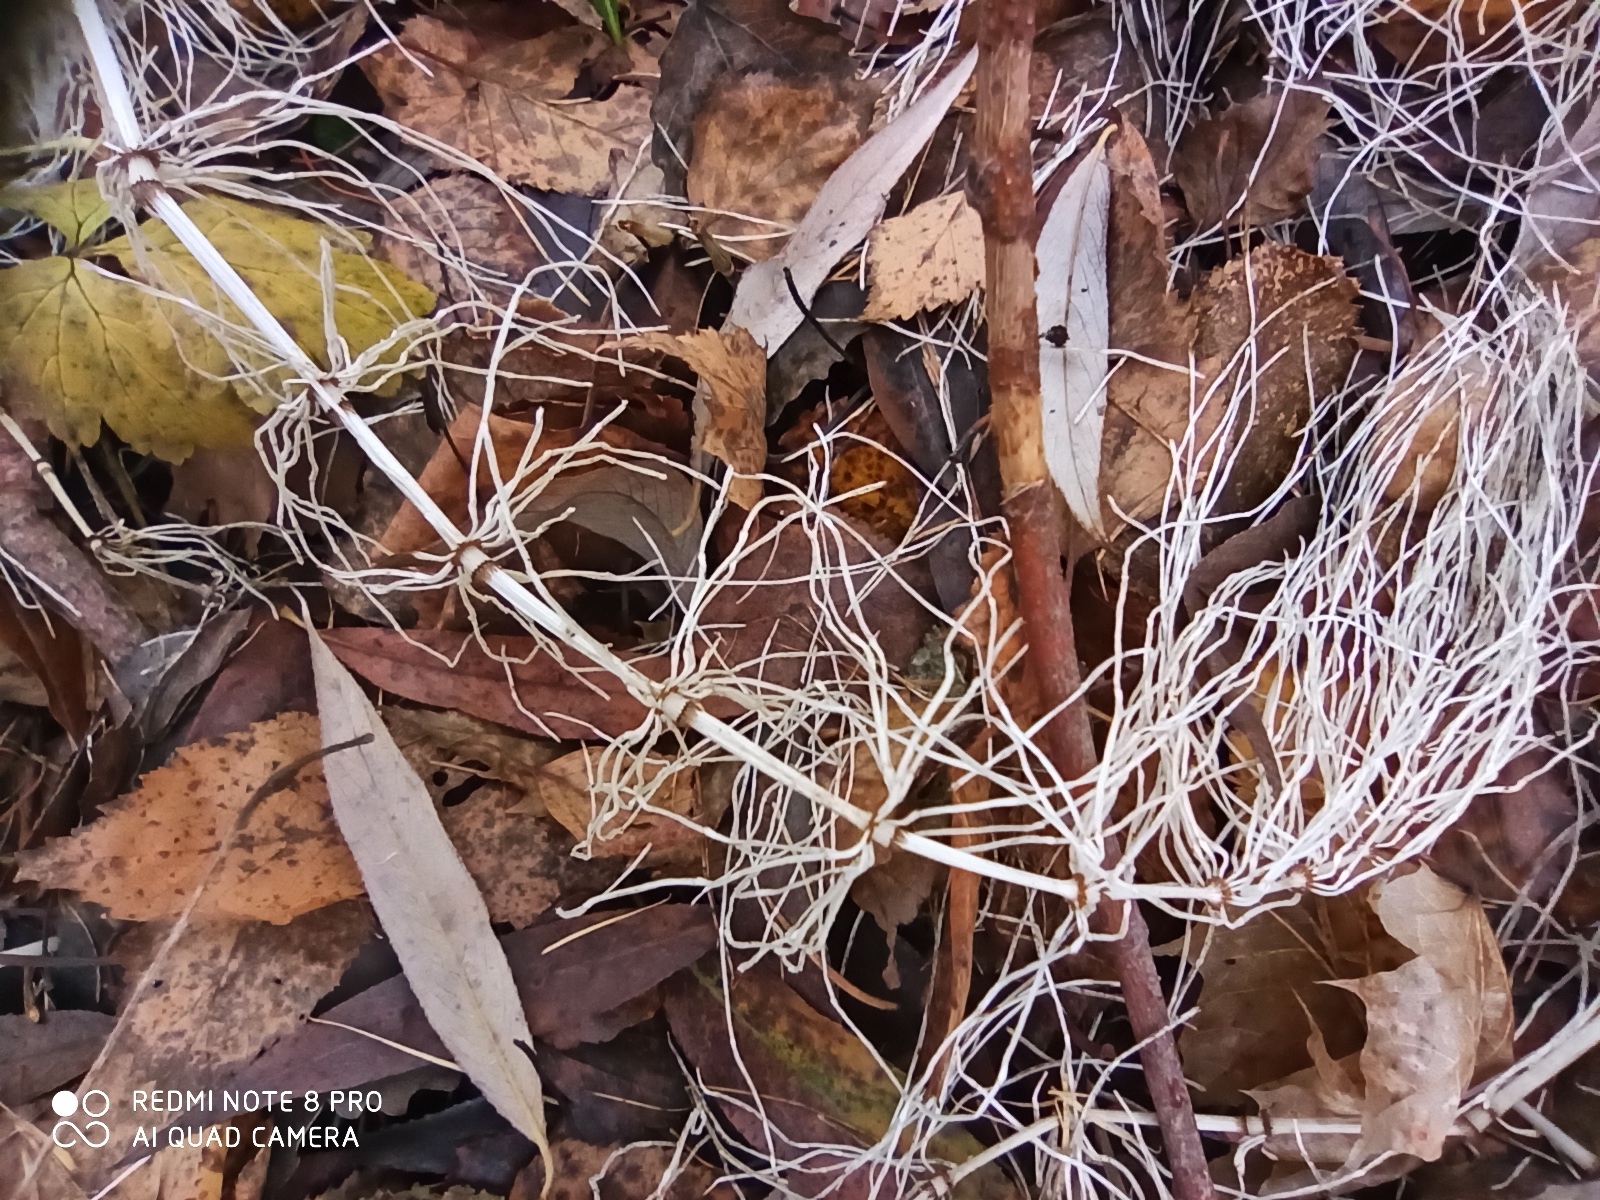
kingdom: Plantae
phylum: Tracheophyta
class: Polypodiopsida
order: Equisetales
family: Equisetaceae
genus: Equisetum
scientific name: Equisetum pratense
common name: Meadow horsetail
